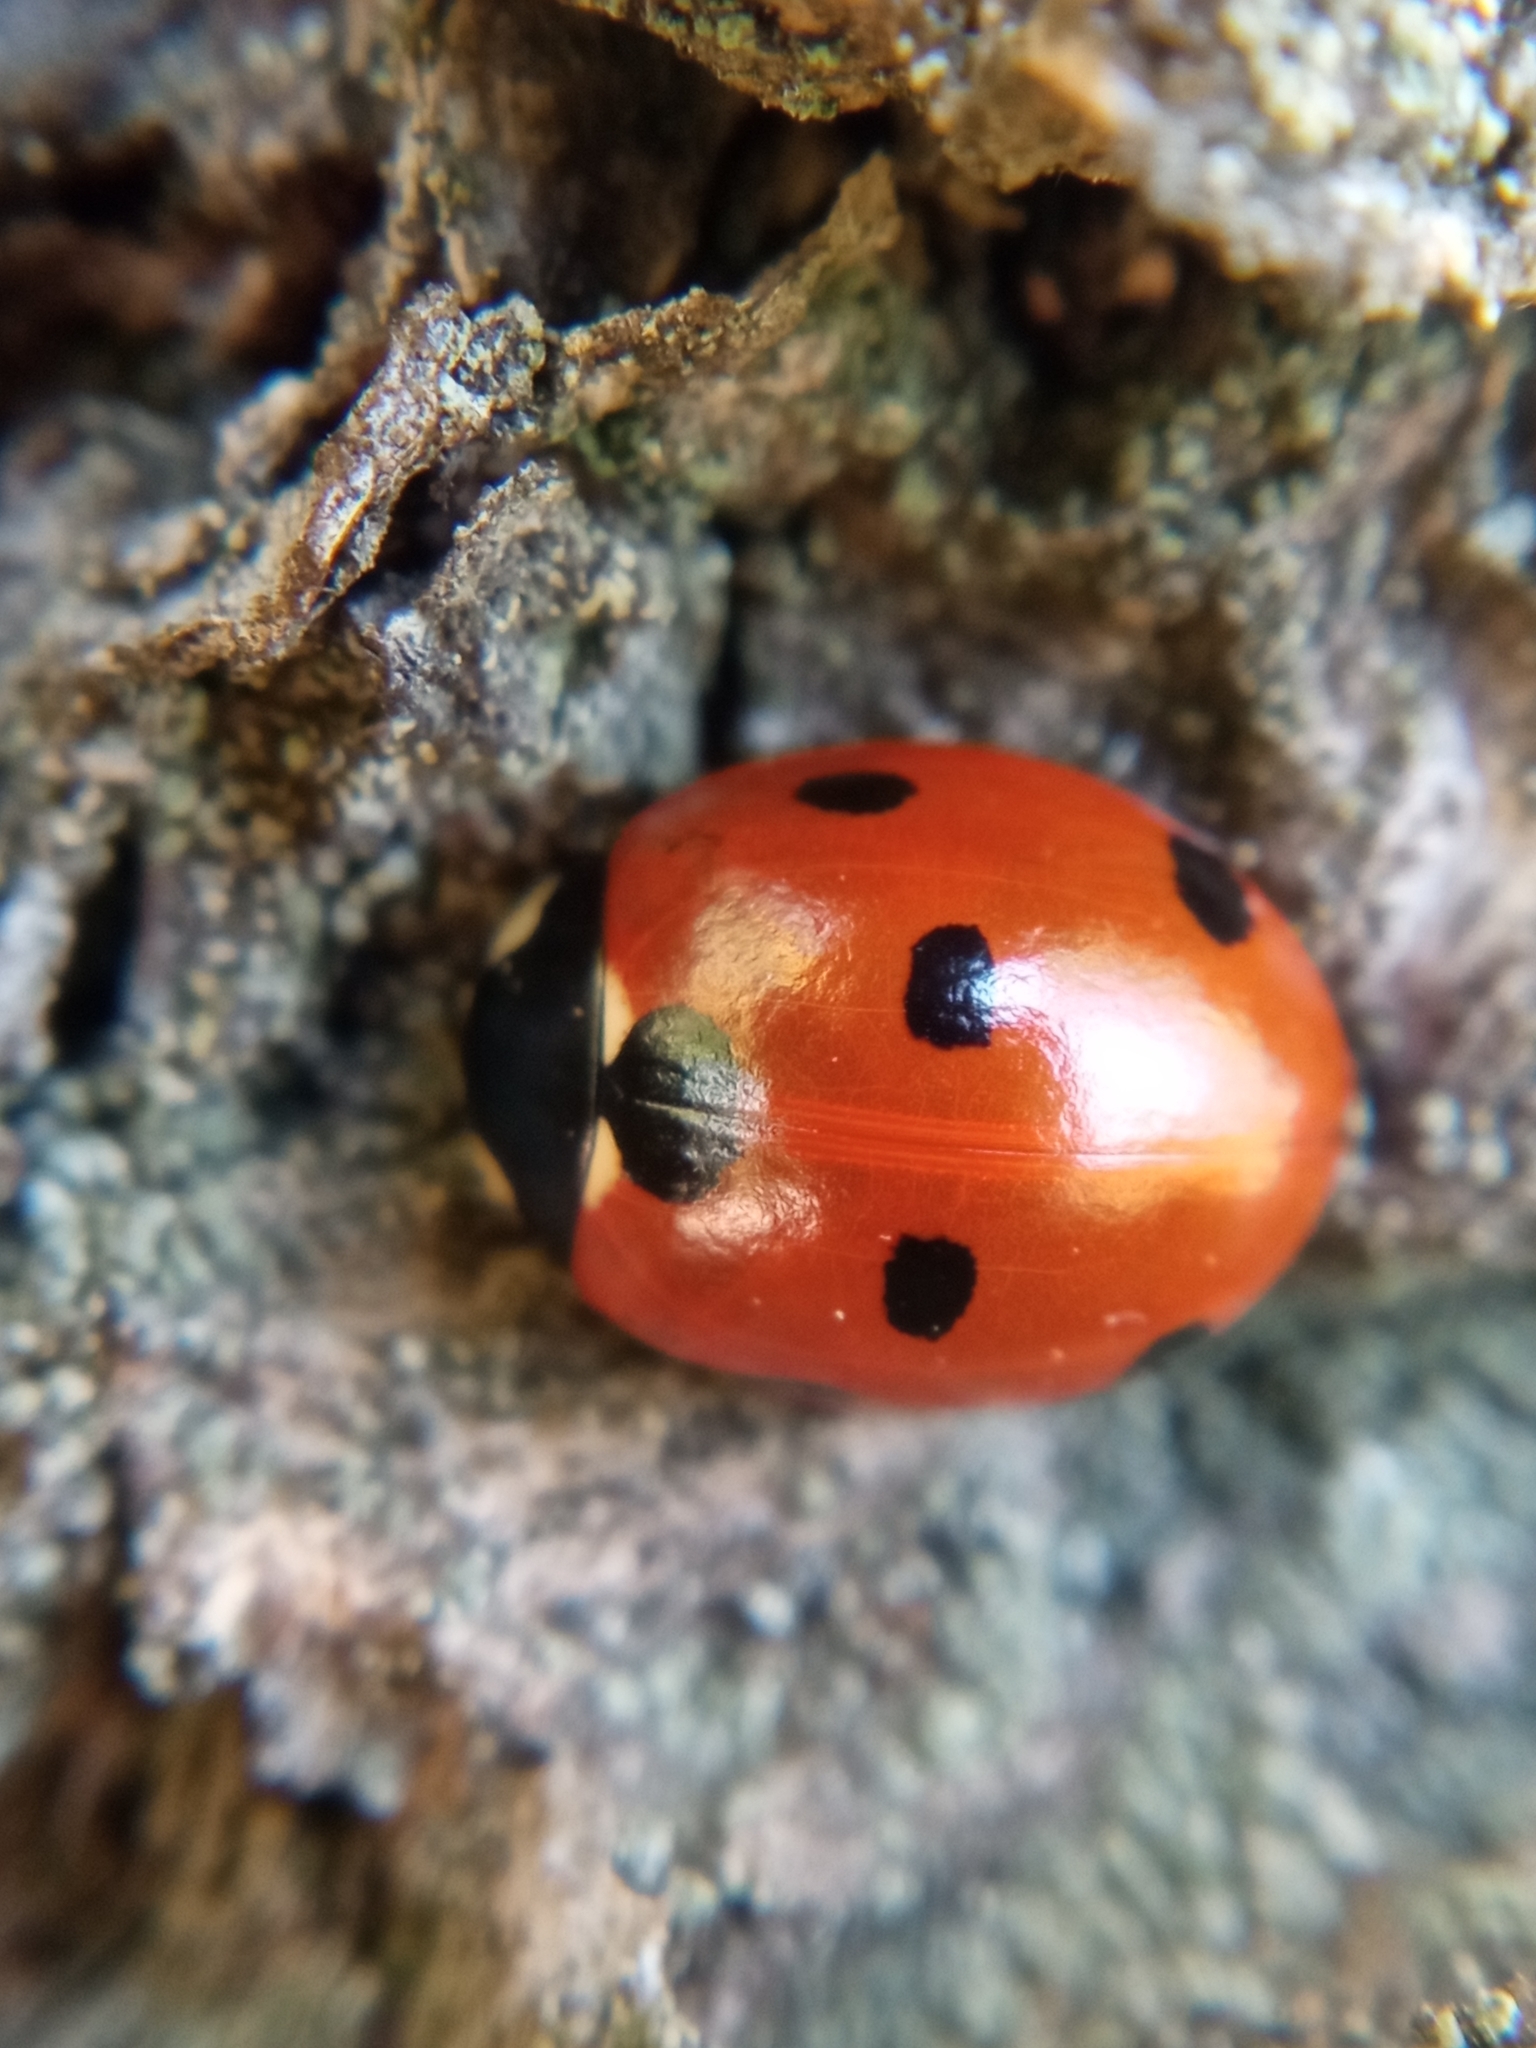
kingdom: Animalia
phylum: Arthropoda
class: Insecta
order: Coleoptera
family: Coccinellidae
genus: Coccinella
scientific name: Coccinella septempunctata
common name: Sevenspotted lady beetle
